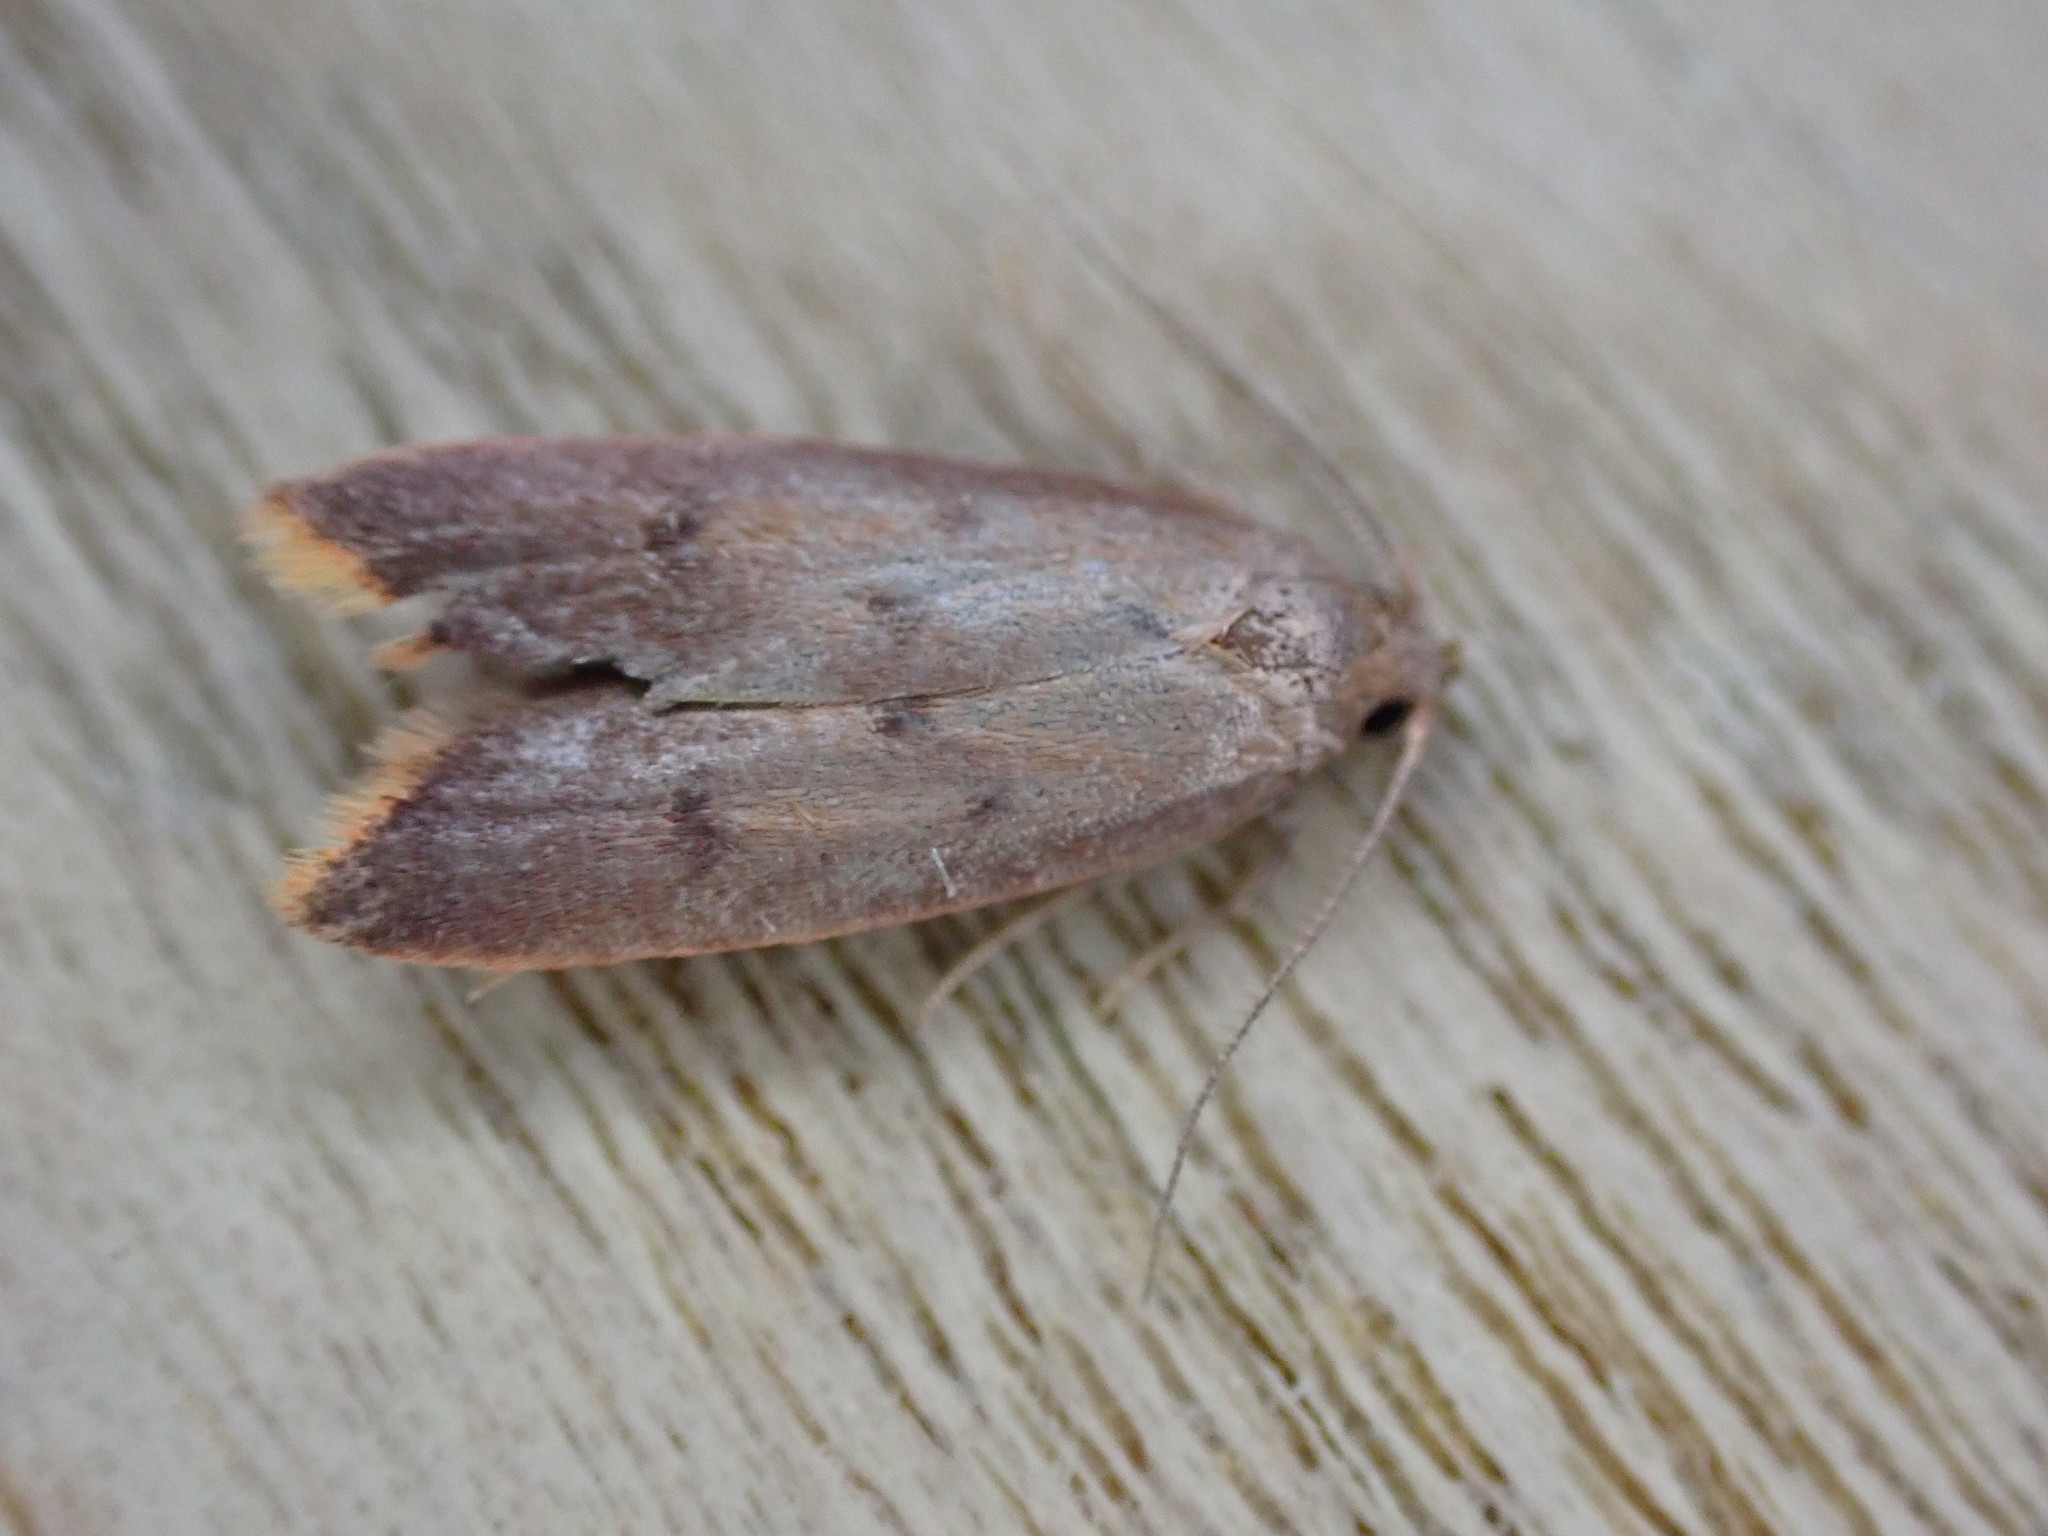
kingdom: Animalia
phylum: Arthropoda
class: Insecta
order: Lepidoptera
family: Oecophoridae
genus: Tachystola
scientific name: Tachystola acroxantha
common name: Ruddy streak
